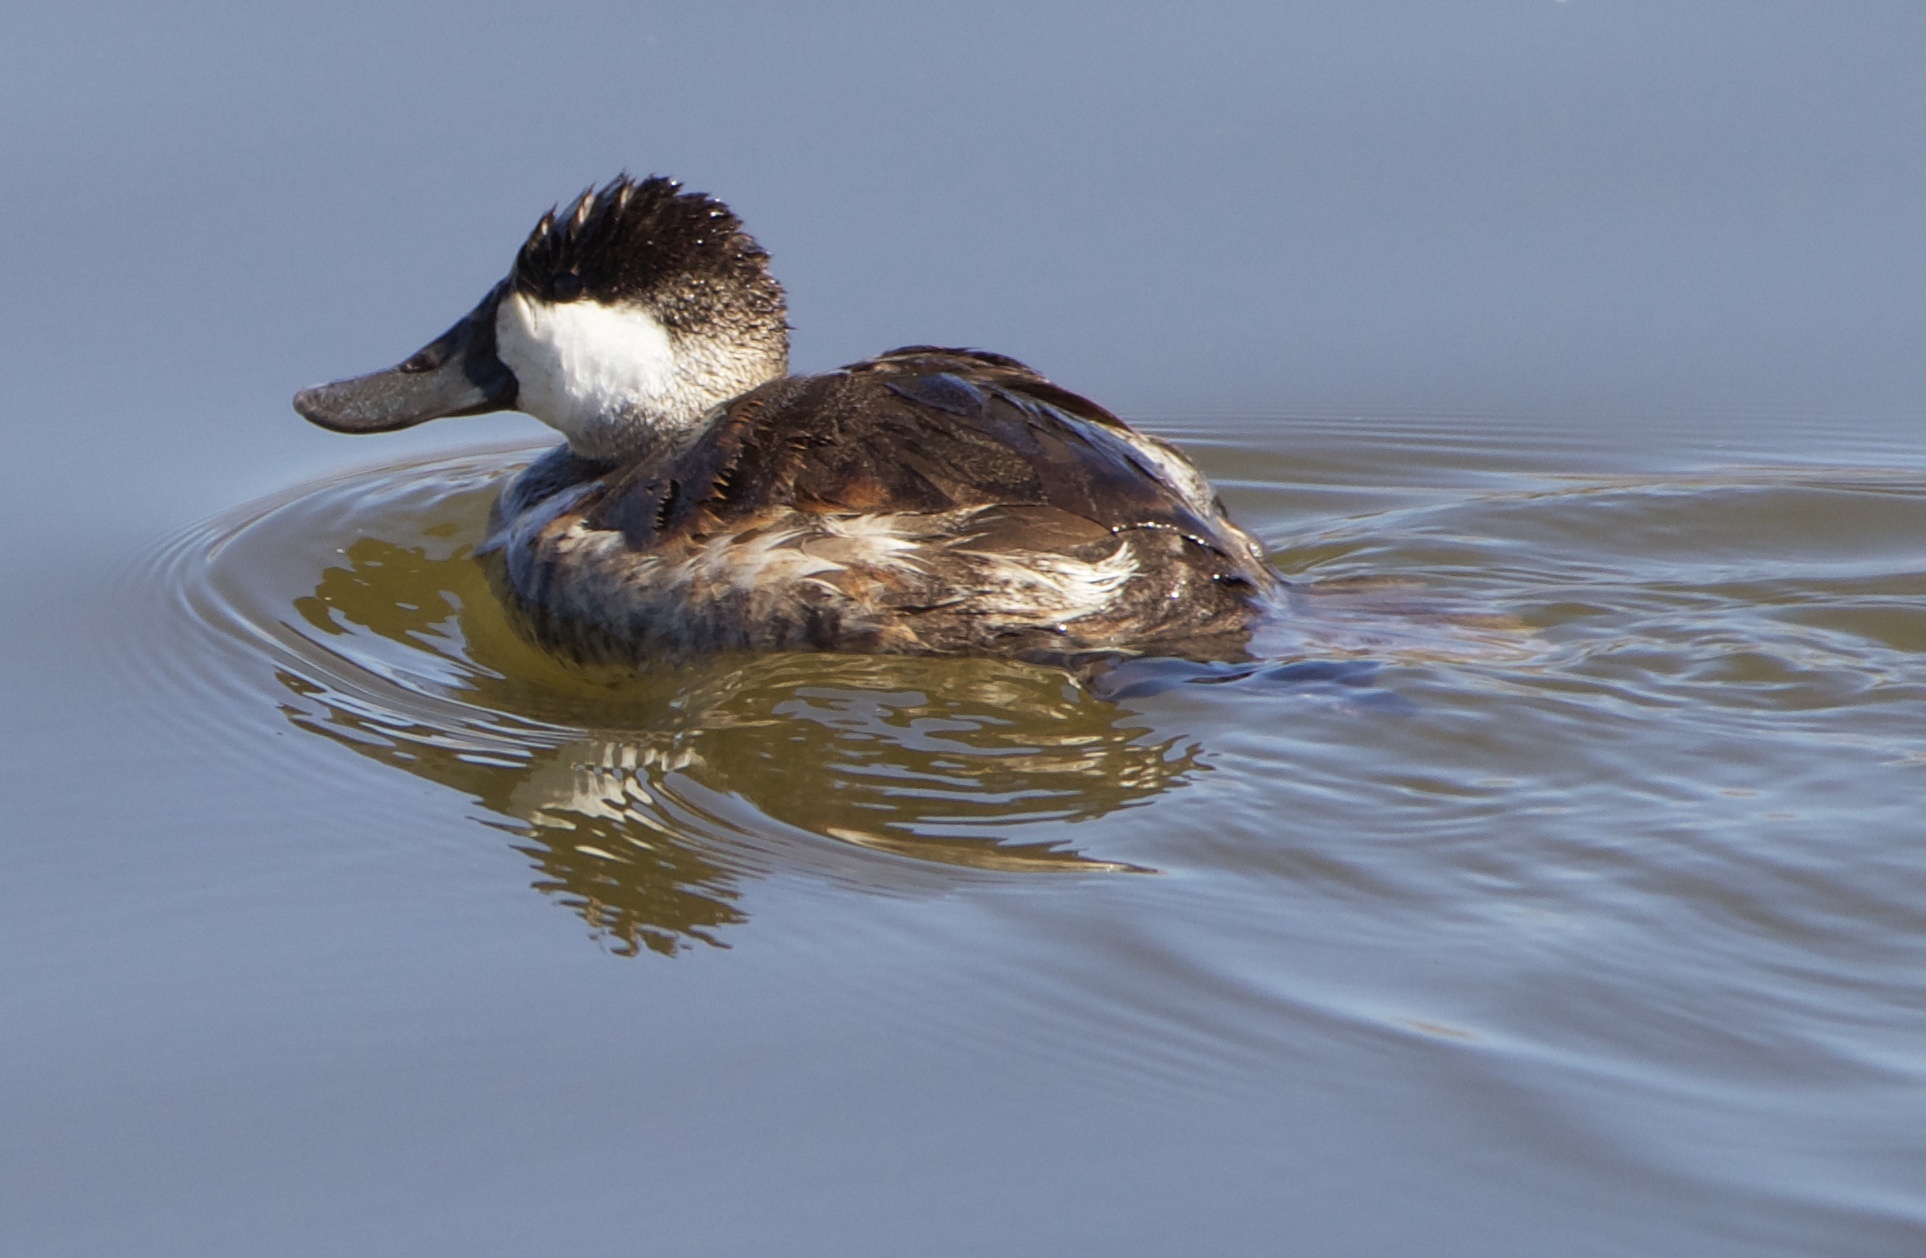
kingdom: Animalia
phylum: Chordata
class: Aves
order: Anseriformes
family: Anatidae
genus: Oxyura
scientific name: Oxyura jamaicensis
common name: Ruddy duck
